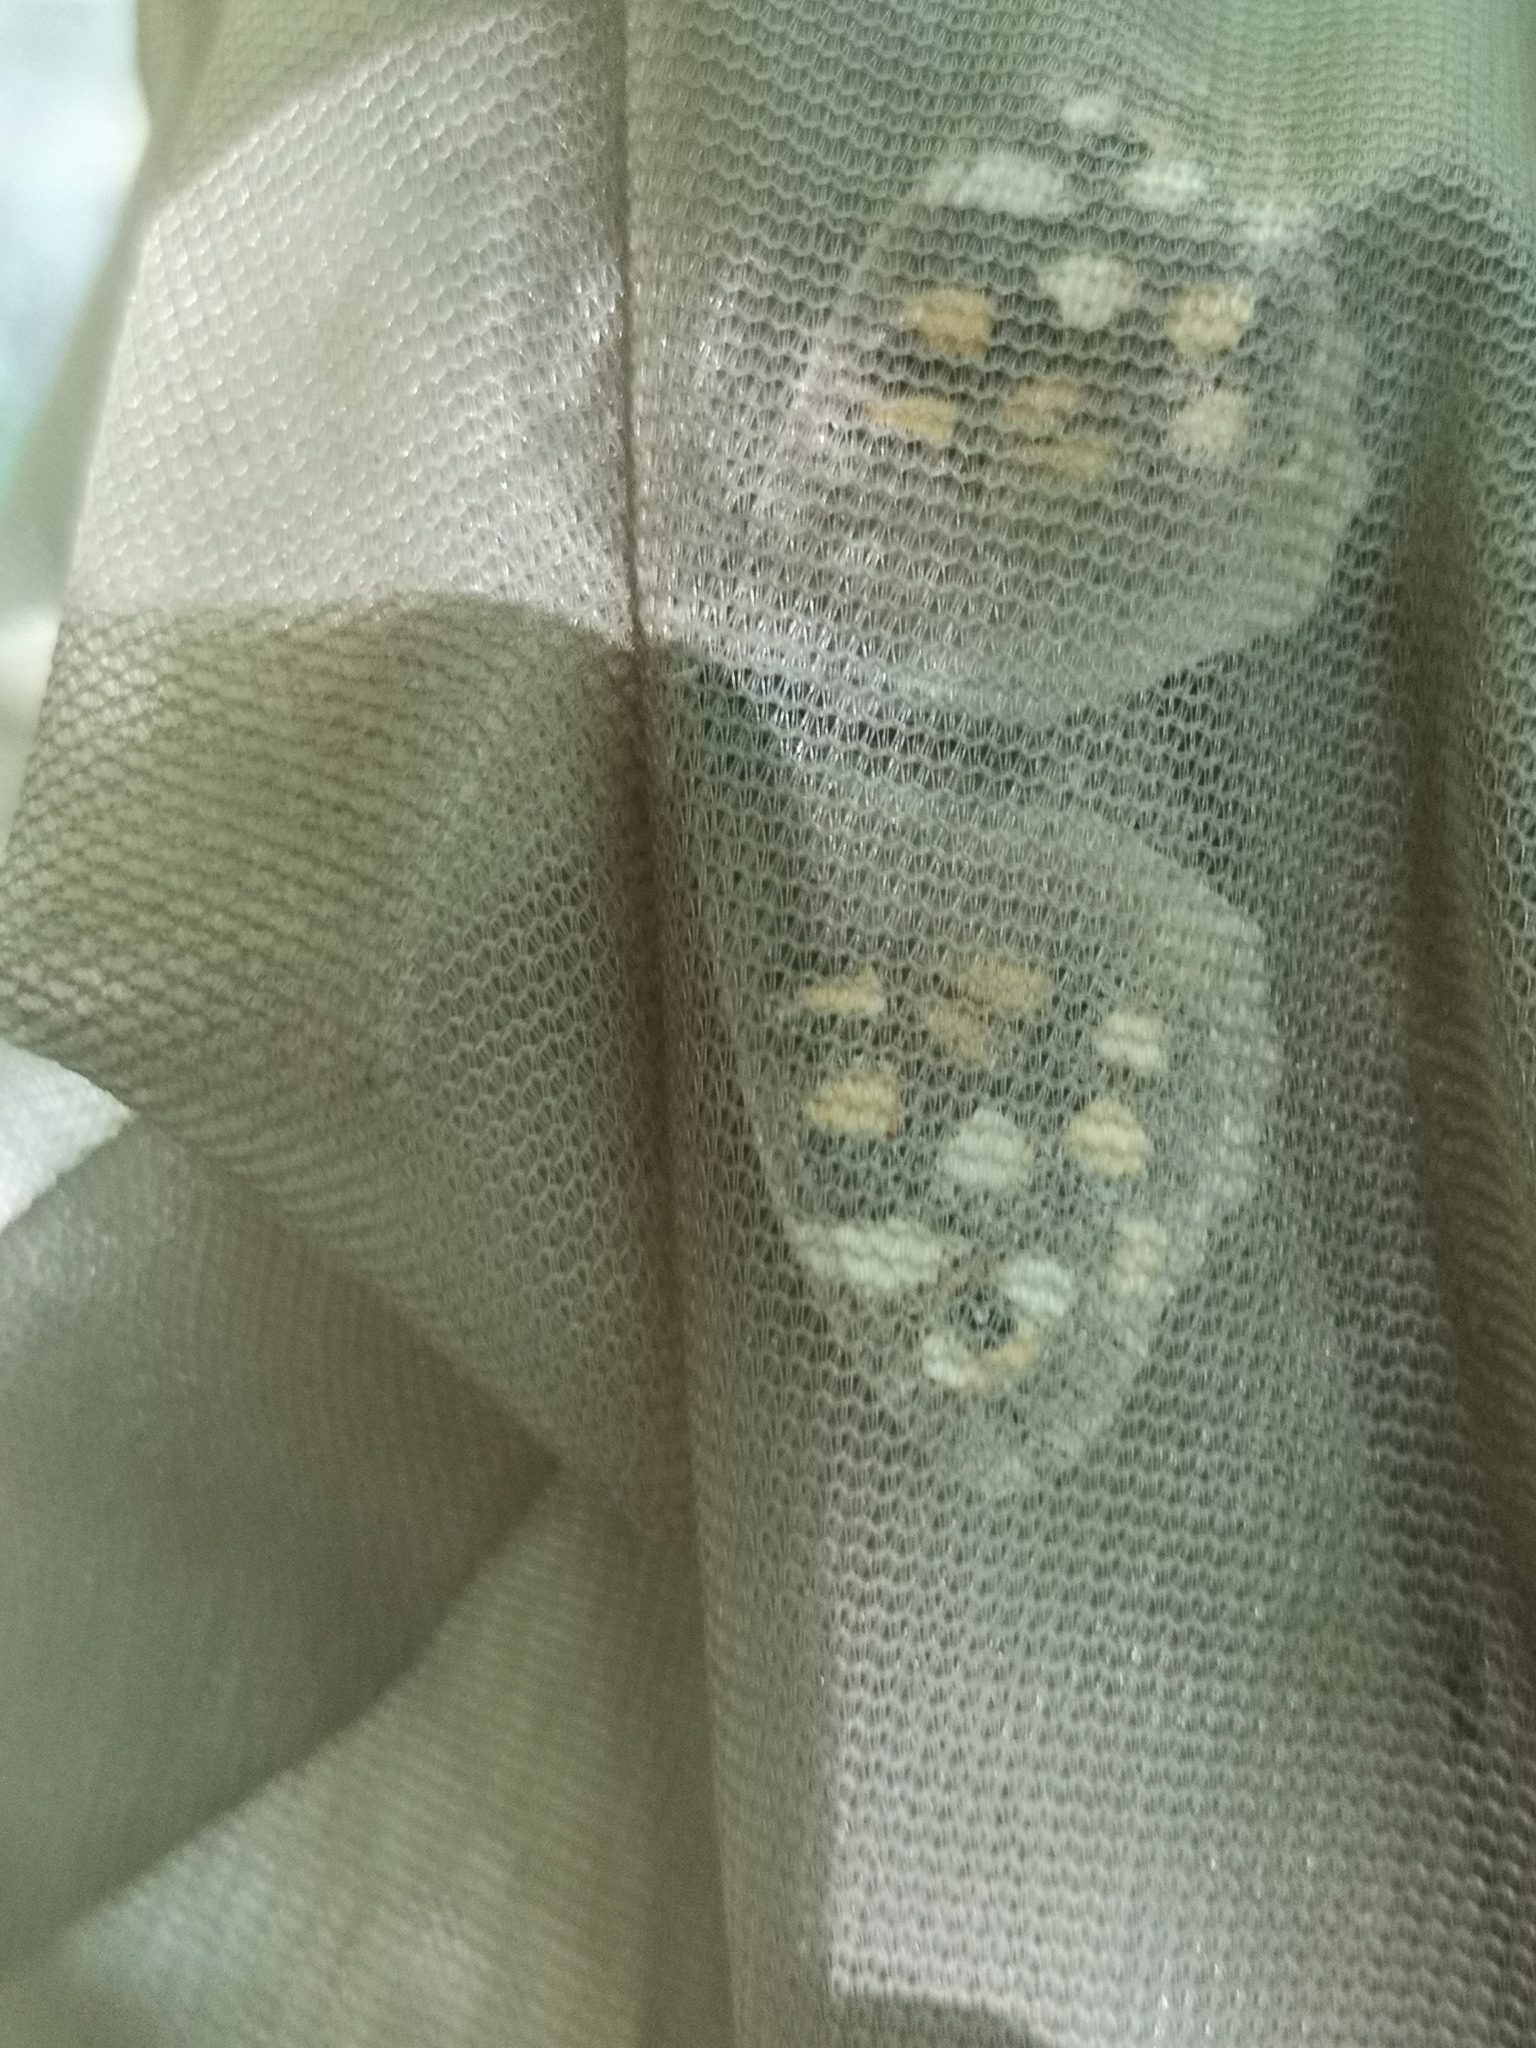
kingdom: Animalia
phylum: Arthropoda
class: Insecta
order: Lepidoptera
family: Nymphalidae
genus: Pararge
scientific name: Pararge aegeria
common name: Speckled wood
